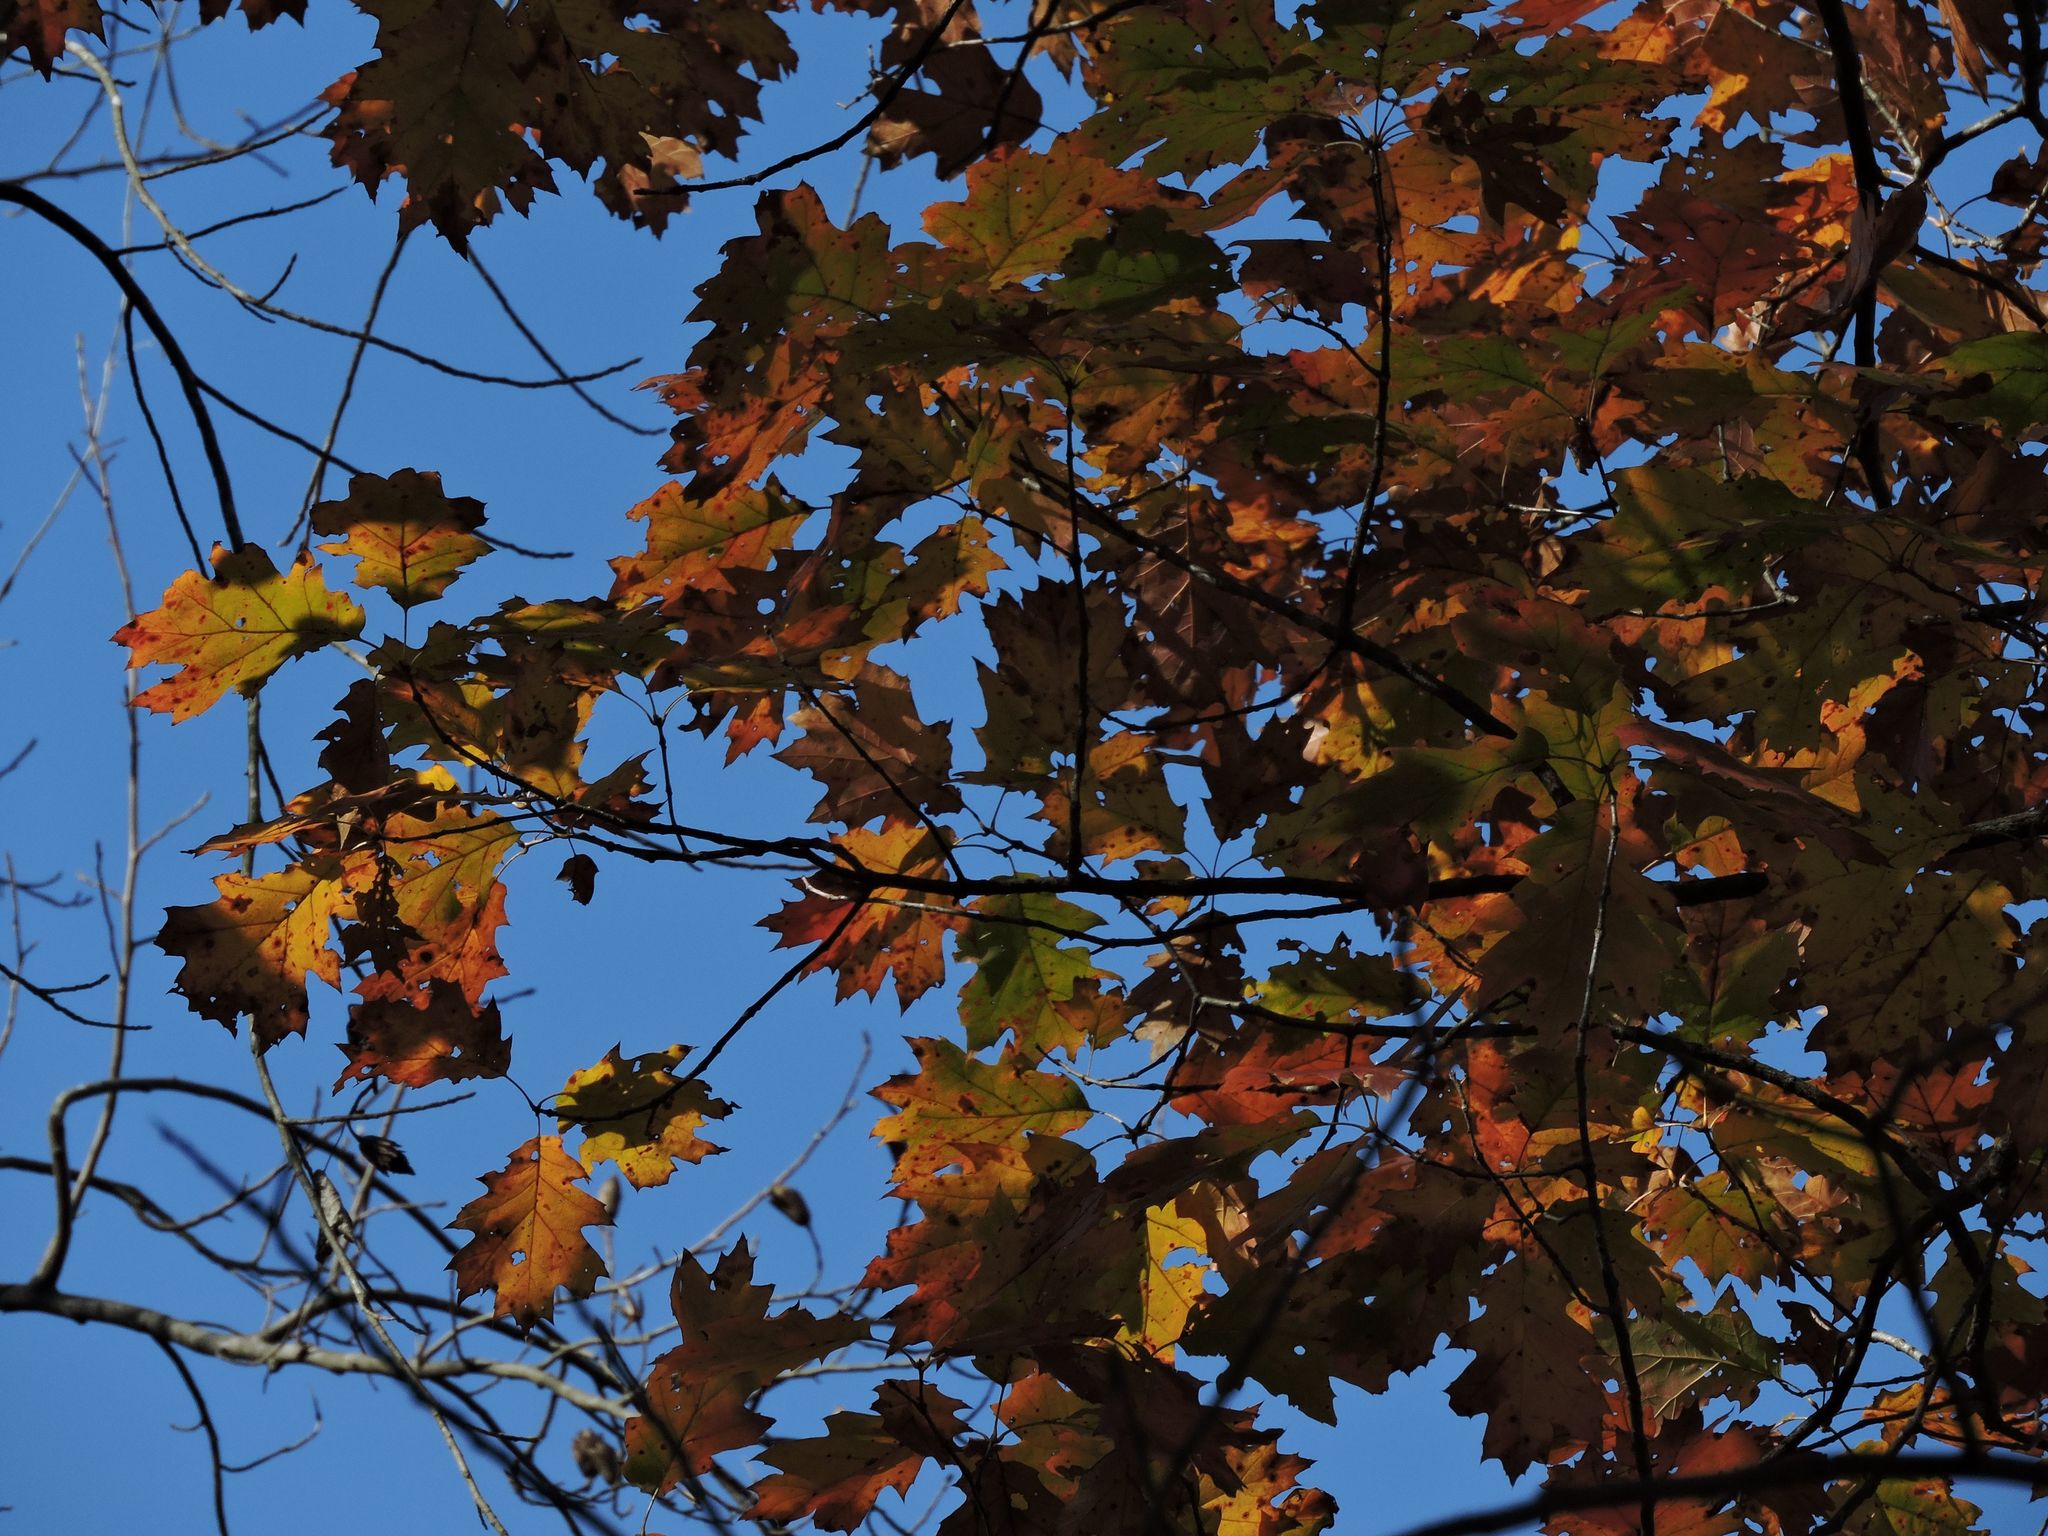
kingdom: Plantae
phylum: Tracheophyta
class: Magnoliopsida
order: Fagales
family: Fagaceae
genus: Quercus
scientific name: Quercus rubra
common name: Red oak
